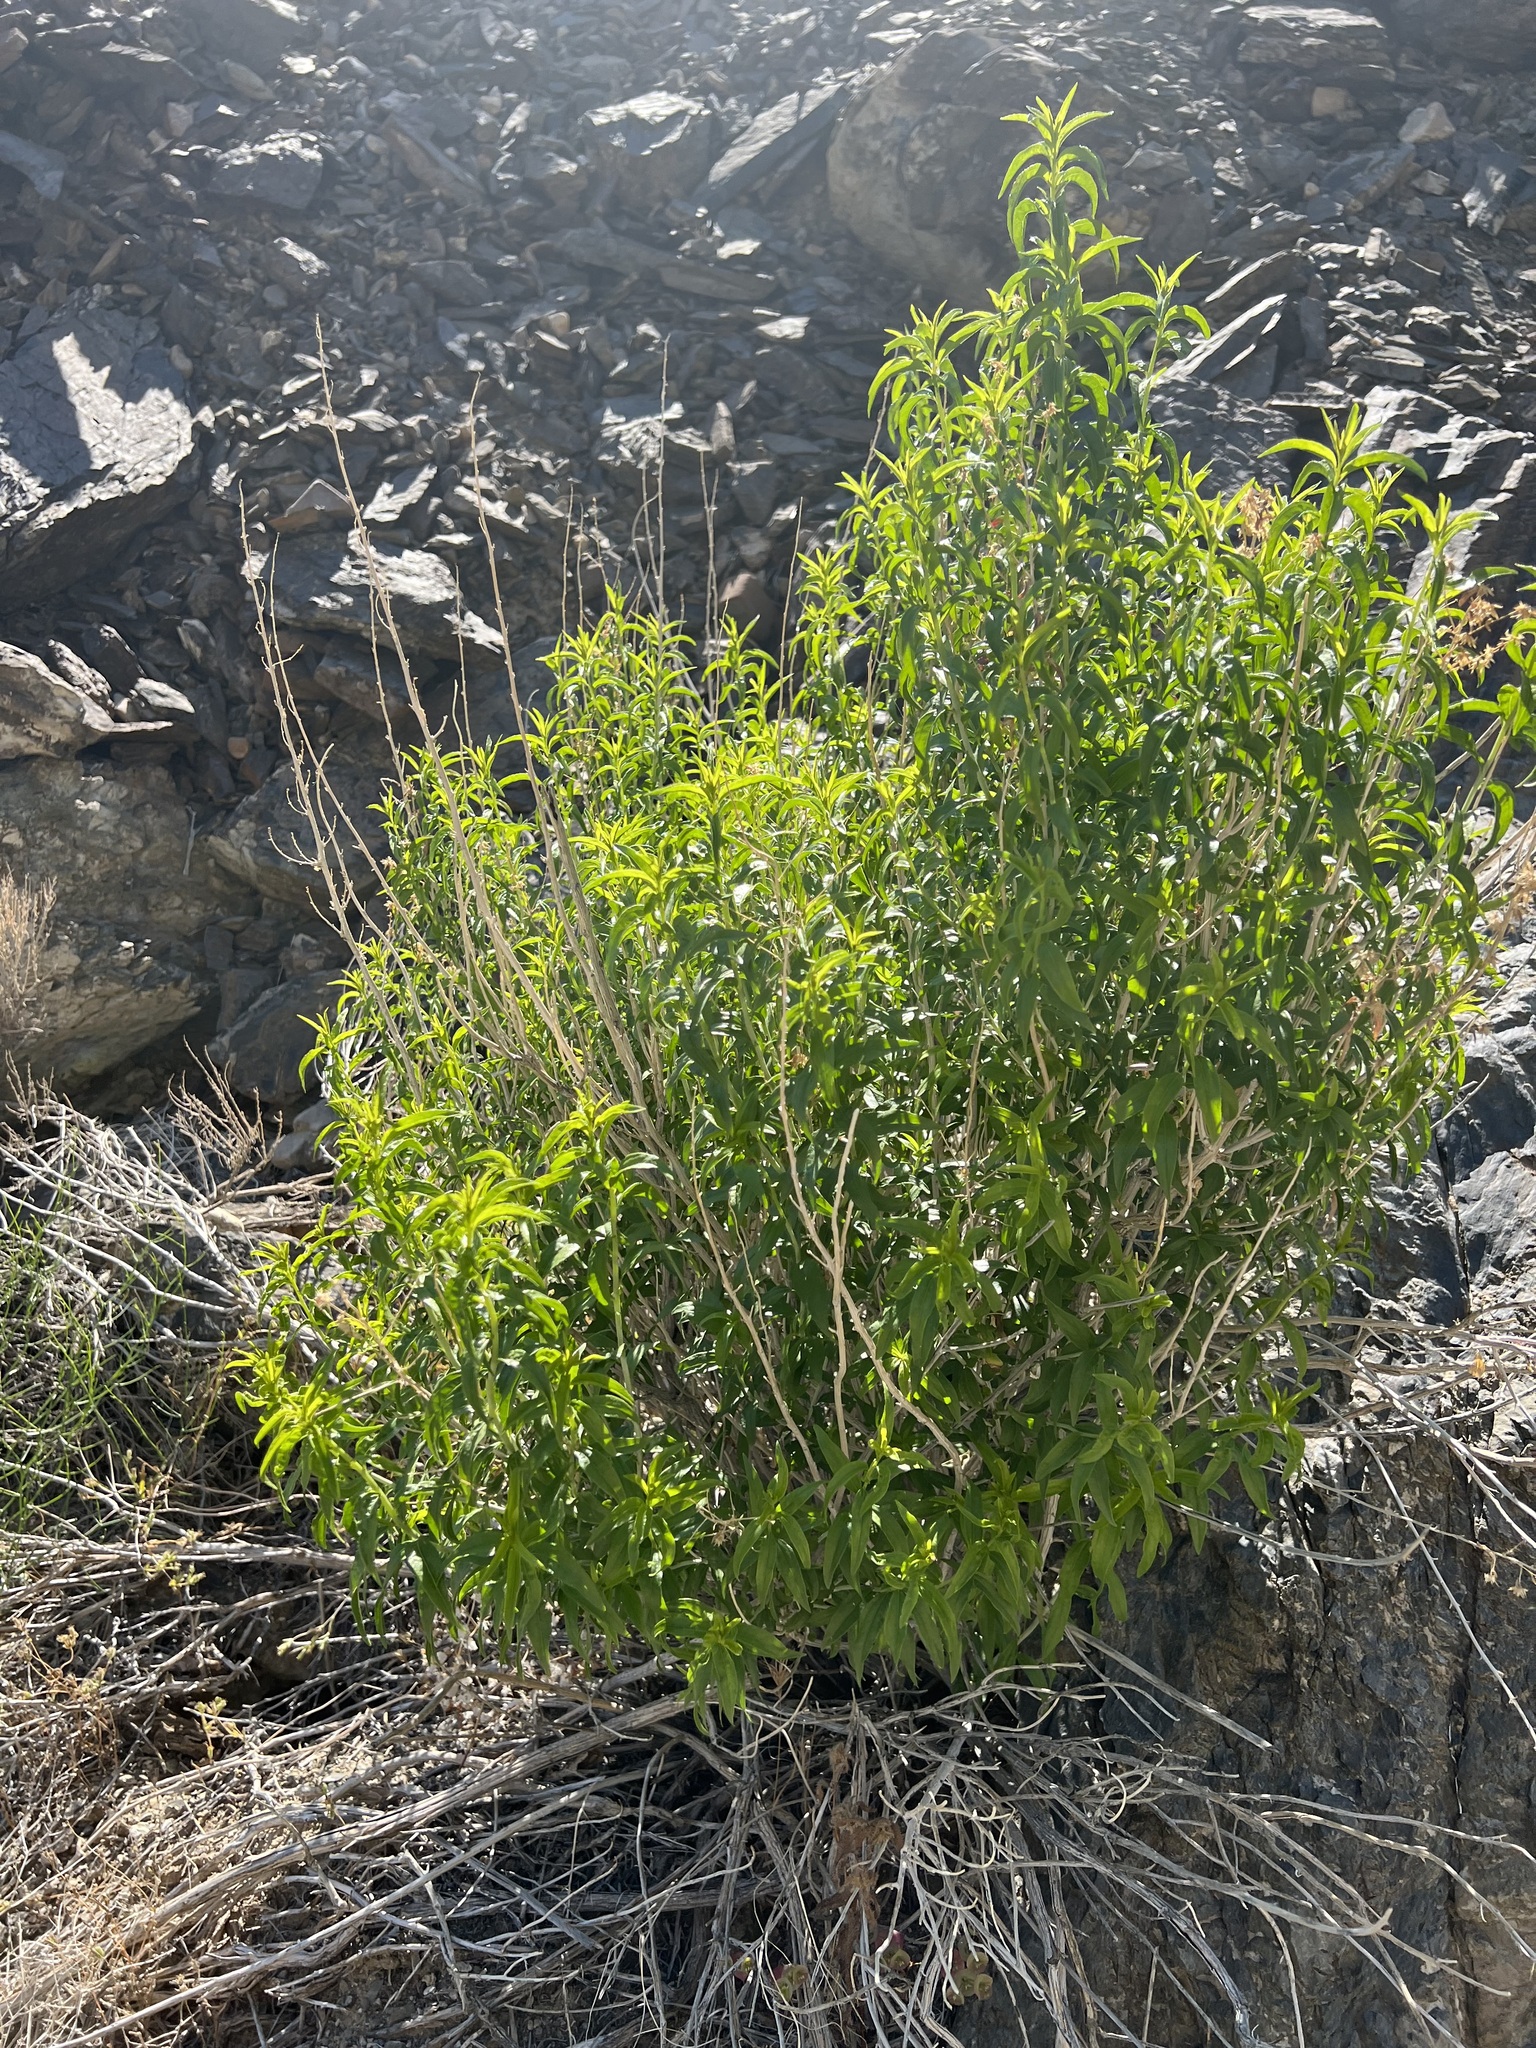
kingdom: Plantae
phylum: Tracheophyta
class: Magnoliopsida
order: Asterales
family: Asteraceae
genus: Brickellia
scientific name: Brickellia longifolia
